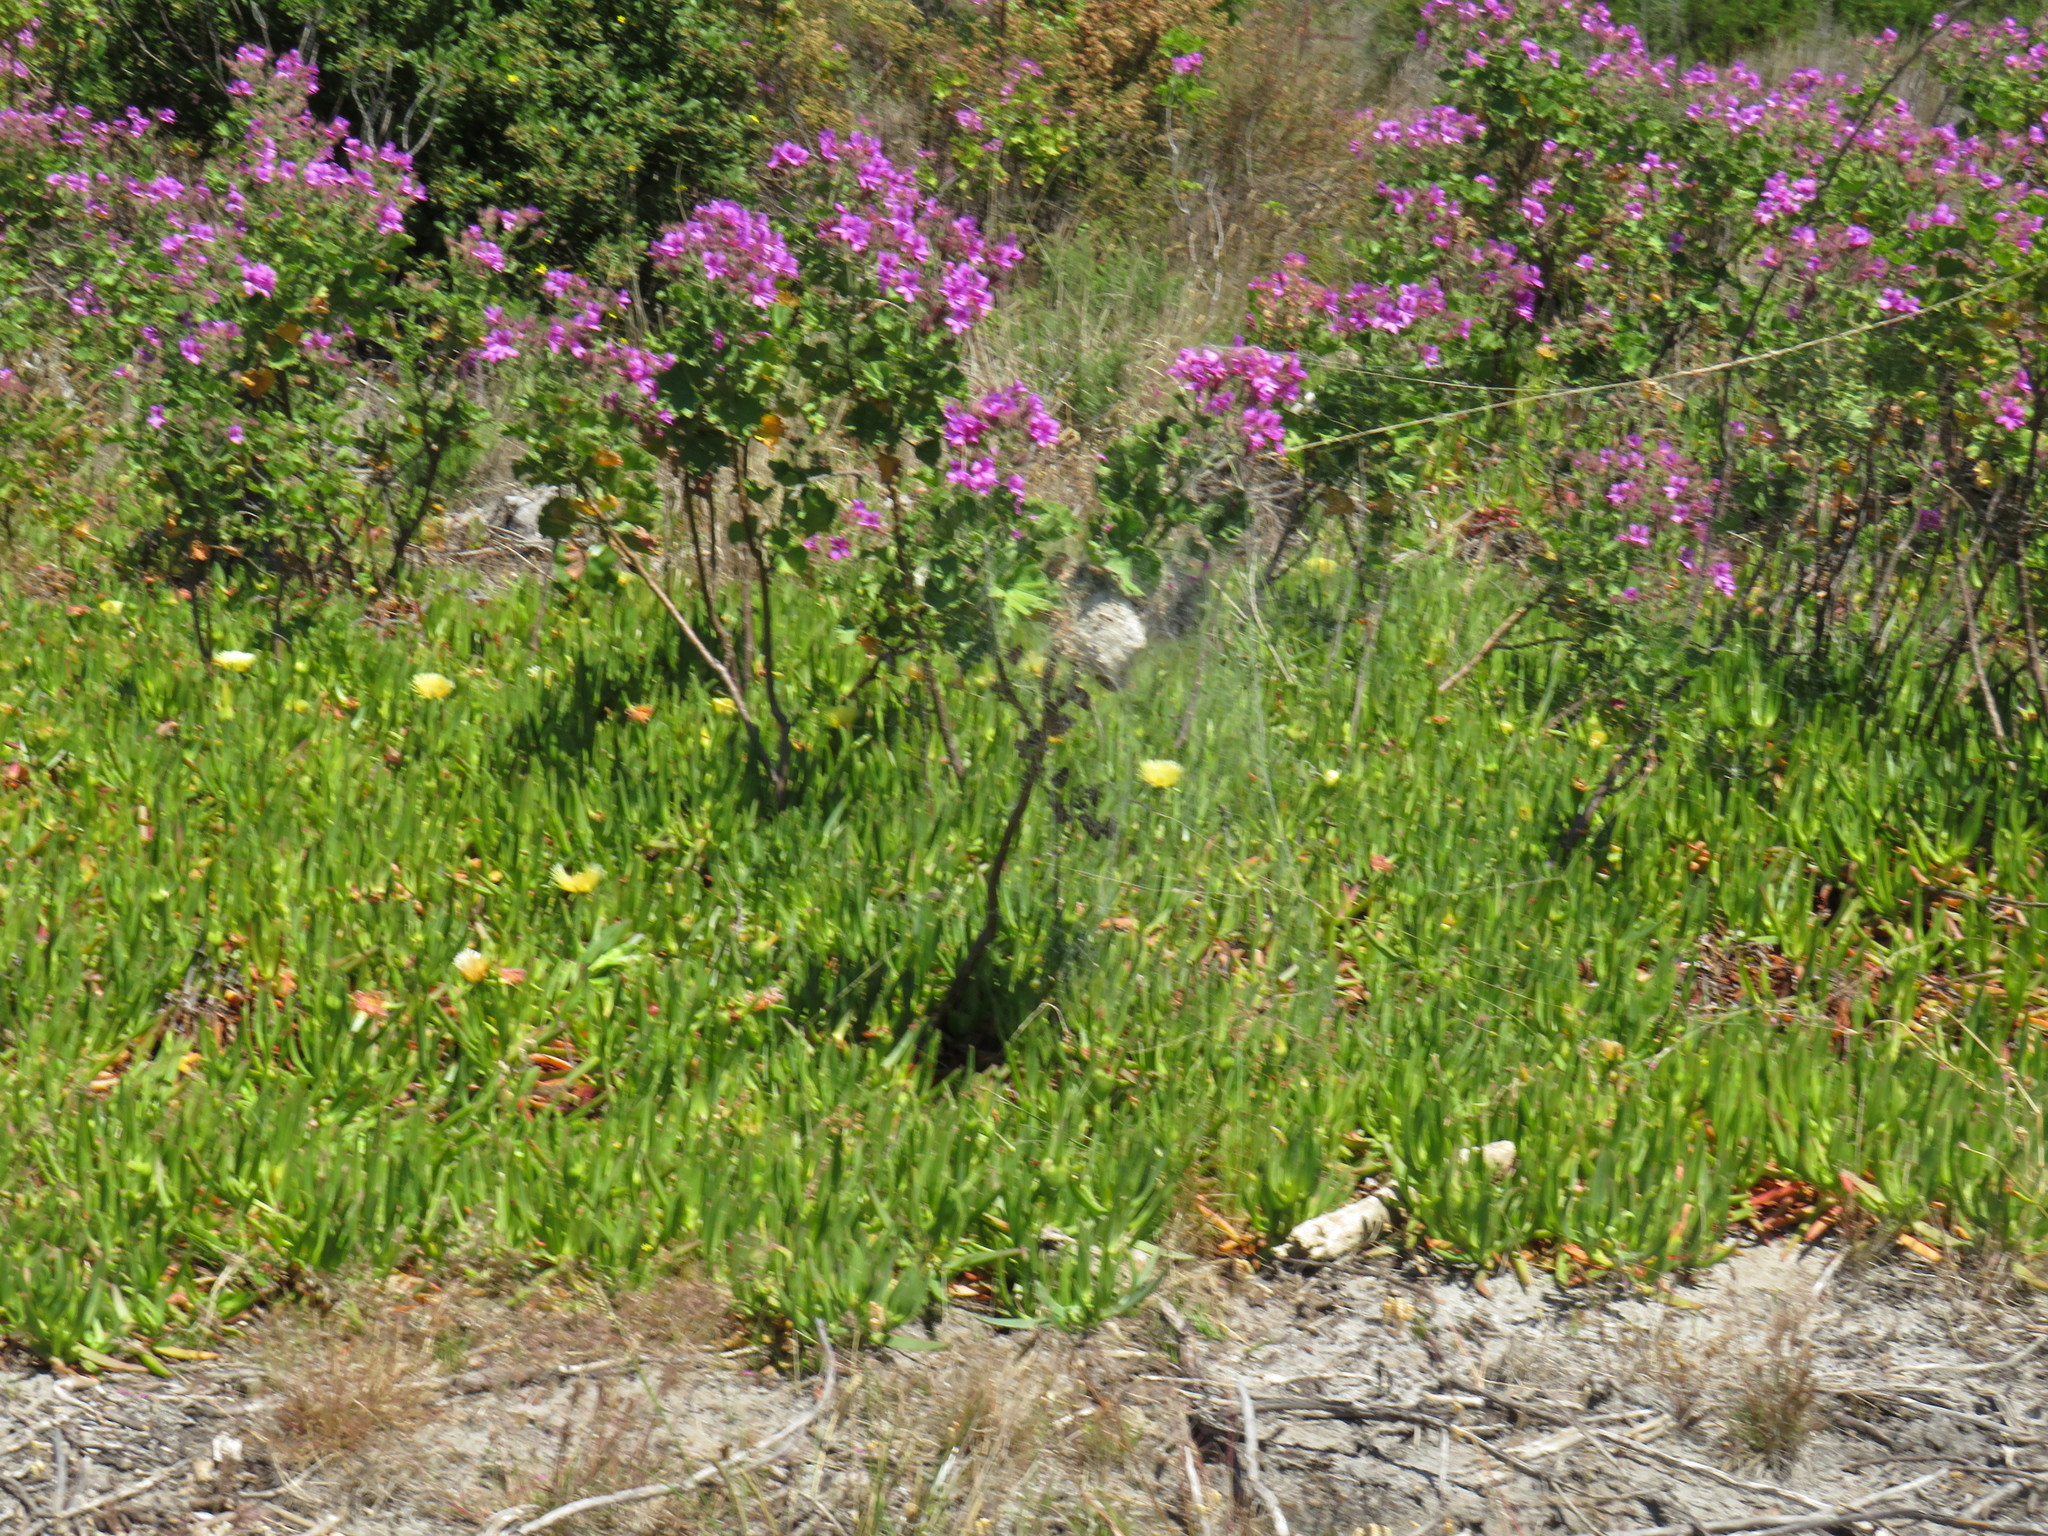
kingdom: Animalia
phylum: Arthropoda
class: Arachnida
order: Araneae
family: Sparassidae
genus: Palystes
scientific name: Palystes superciliosus
